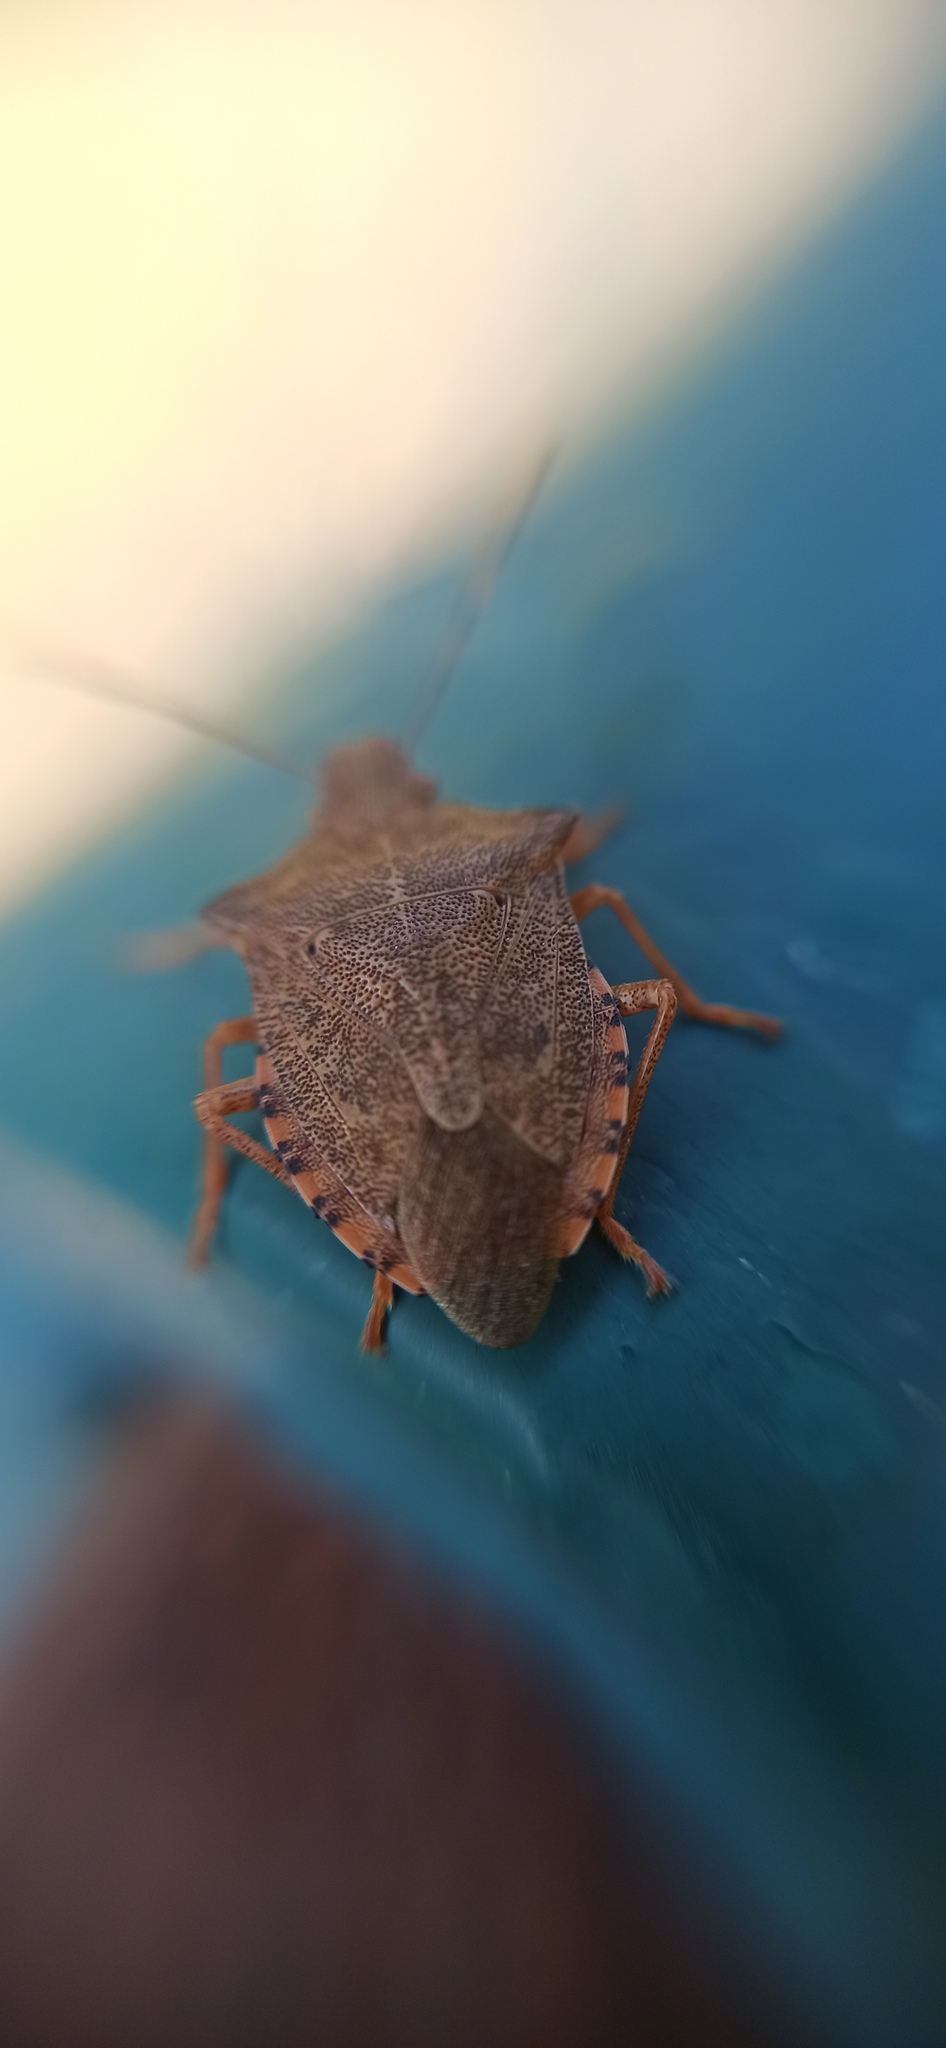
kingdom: Animalia
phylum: Arthropoda
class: Insecta
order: Hemiptera
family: Pentatomidae
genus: Arma
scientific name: Arma custos
